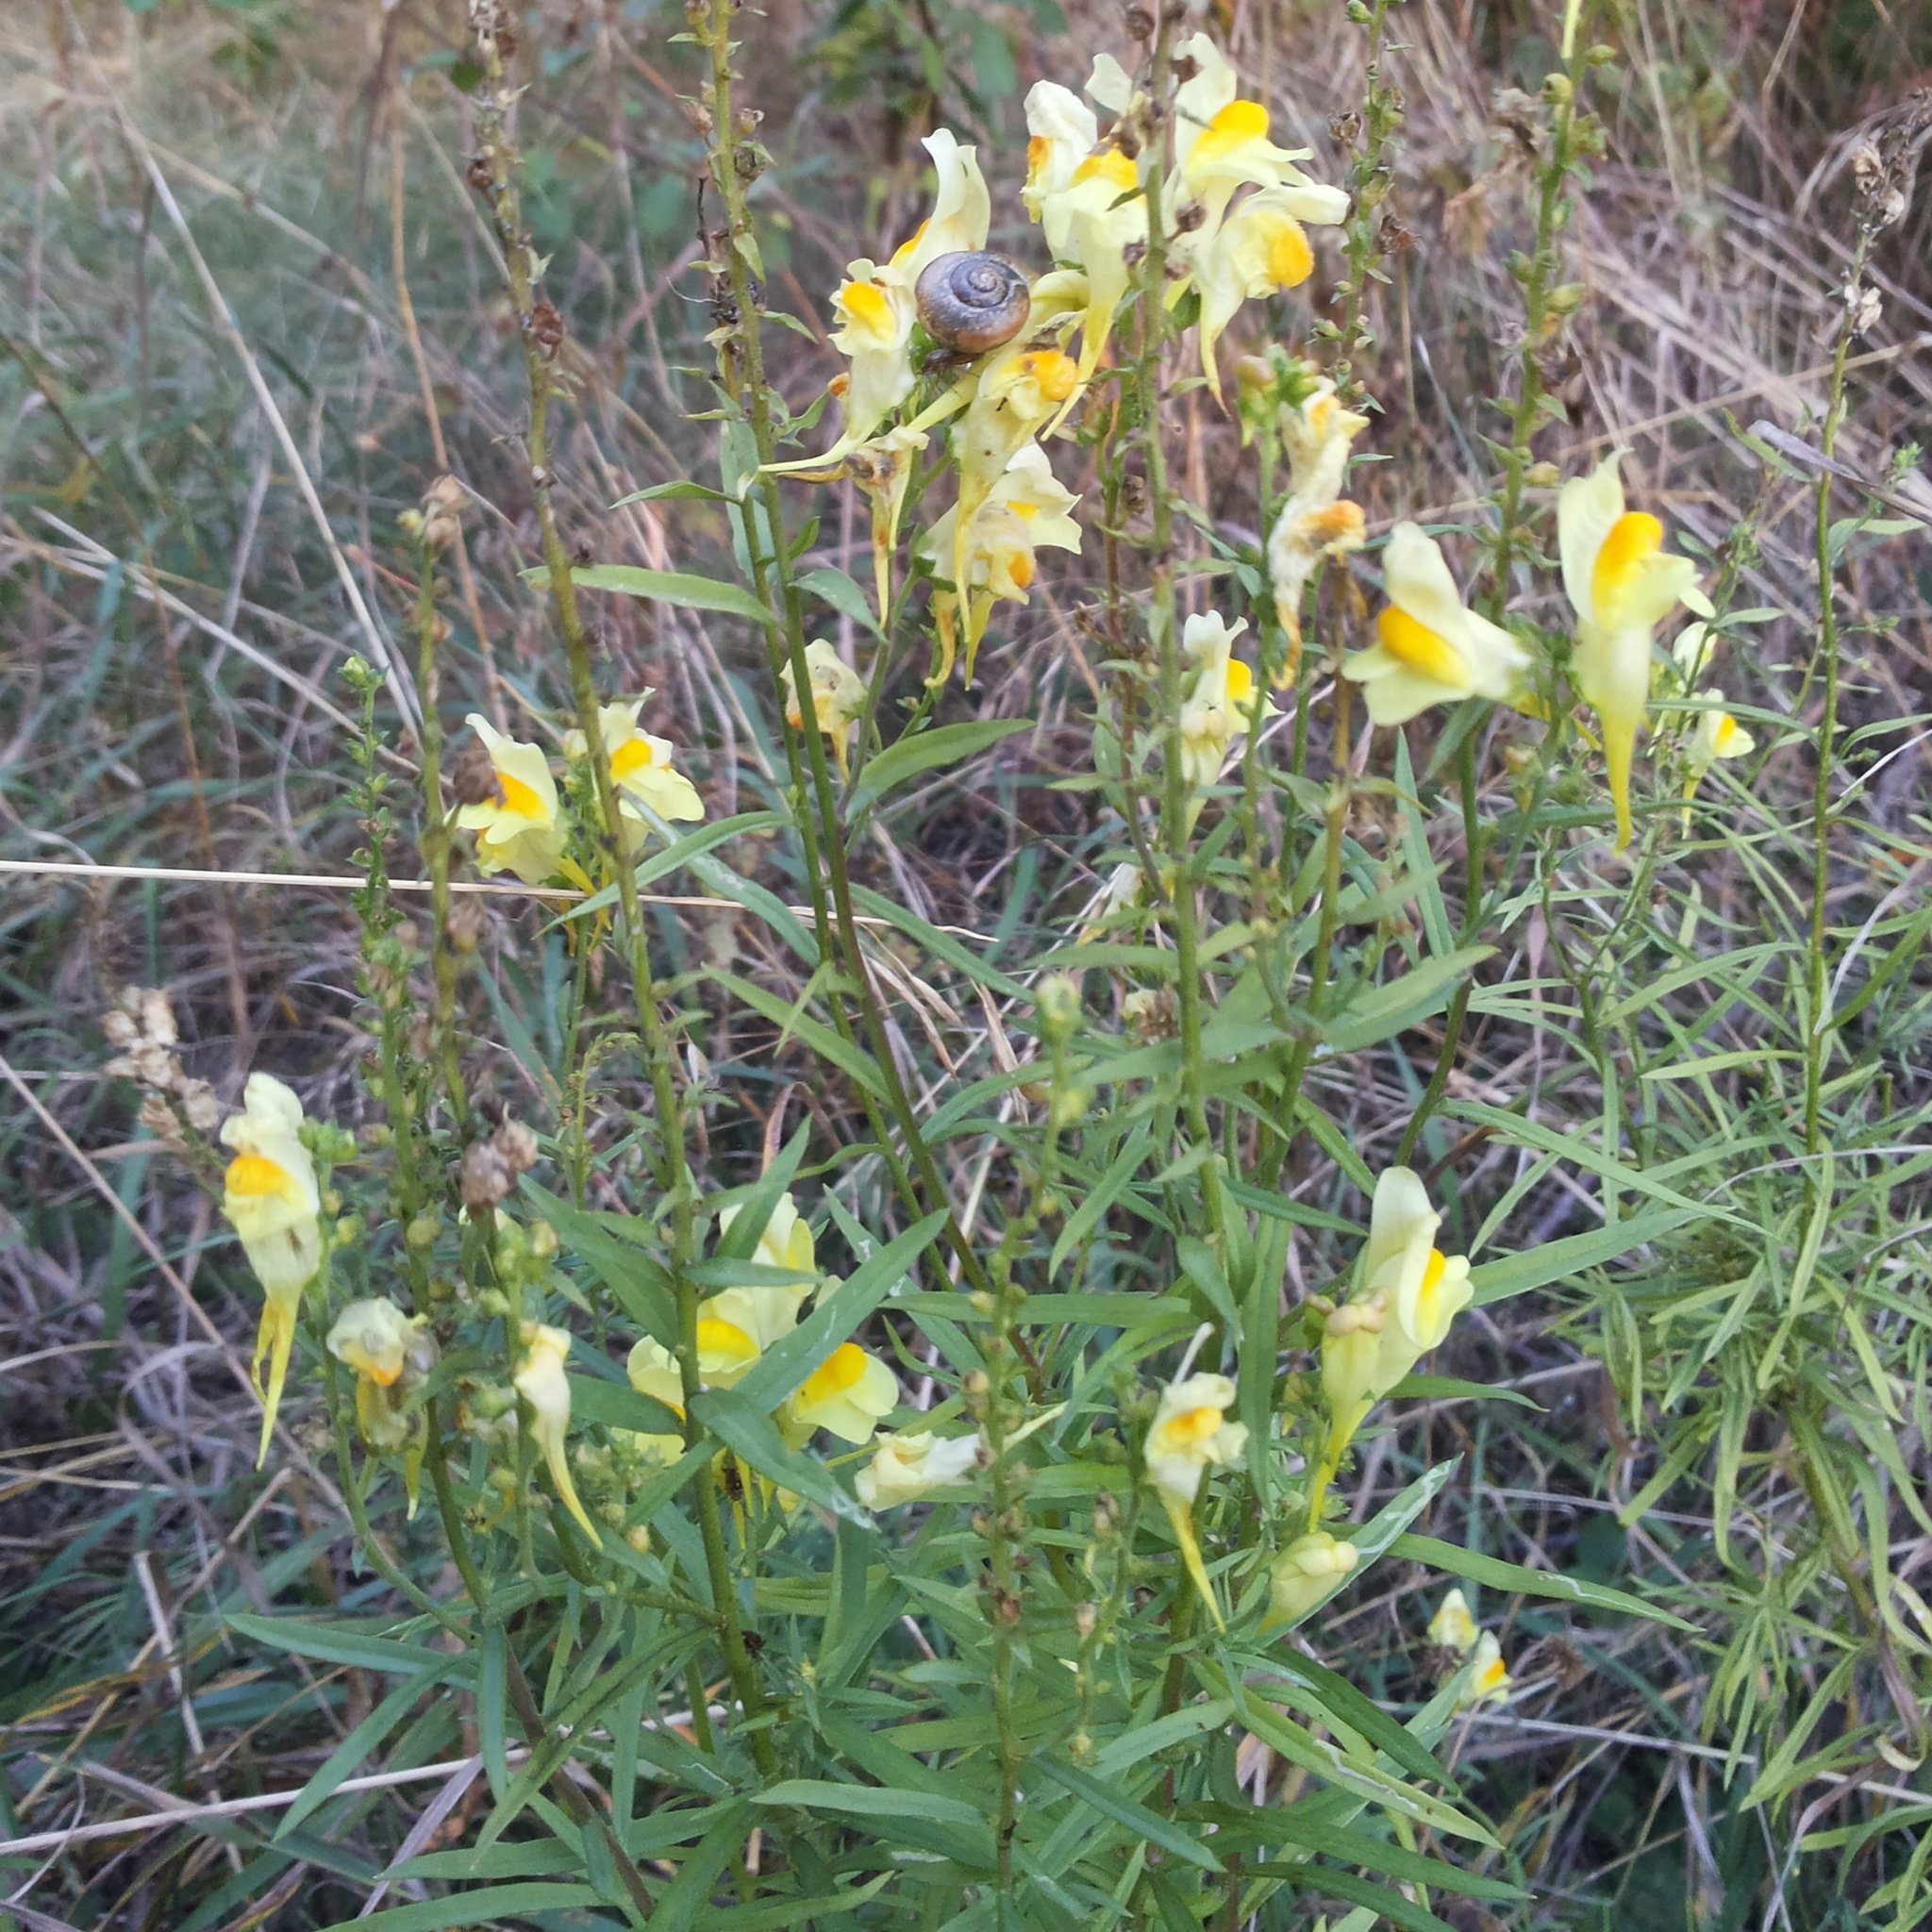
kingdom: Plantae
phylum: Tracheophyta
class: Magnoliopsida
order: Lamiales
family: Plantaginaceae
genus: Linaria
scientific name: Linaria vulgaris
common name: Butter and eggs
